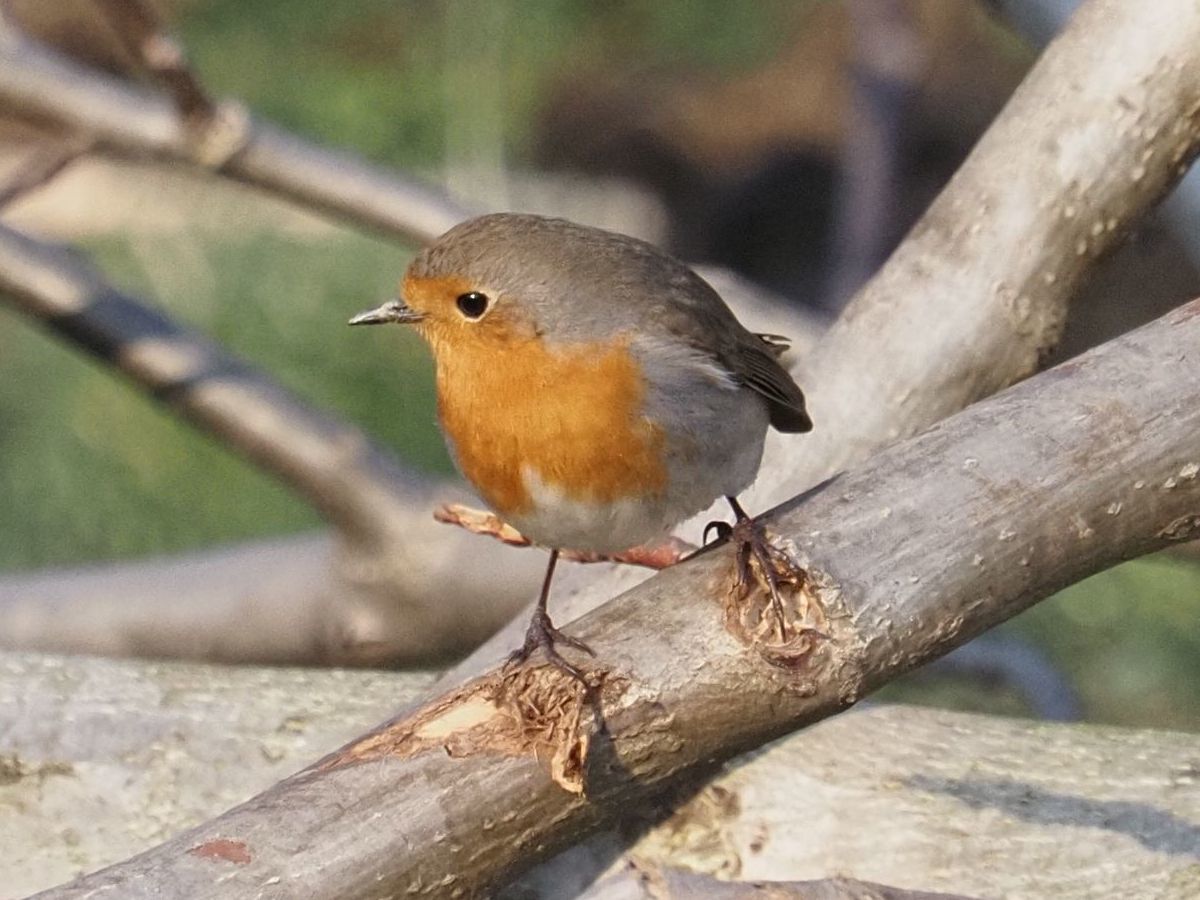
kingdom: Animalia
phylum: Chordata
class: Aves
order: Passeriformes
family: Muscicapidae
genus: Erithacus
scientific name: Erithacus rubecula
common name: European robin
